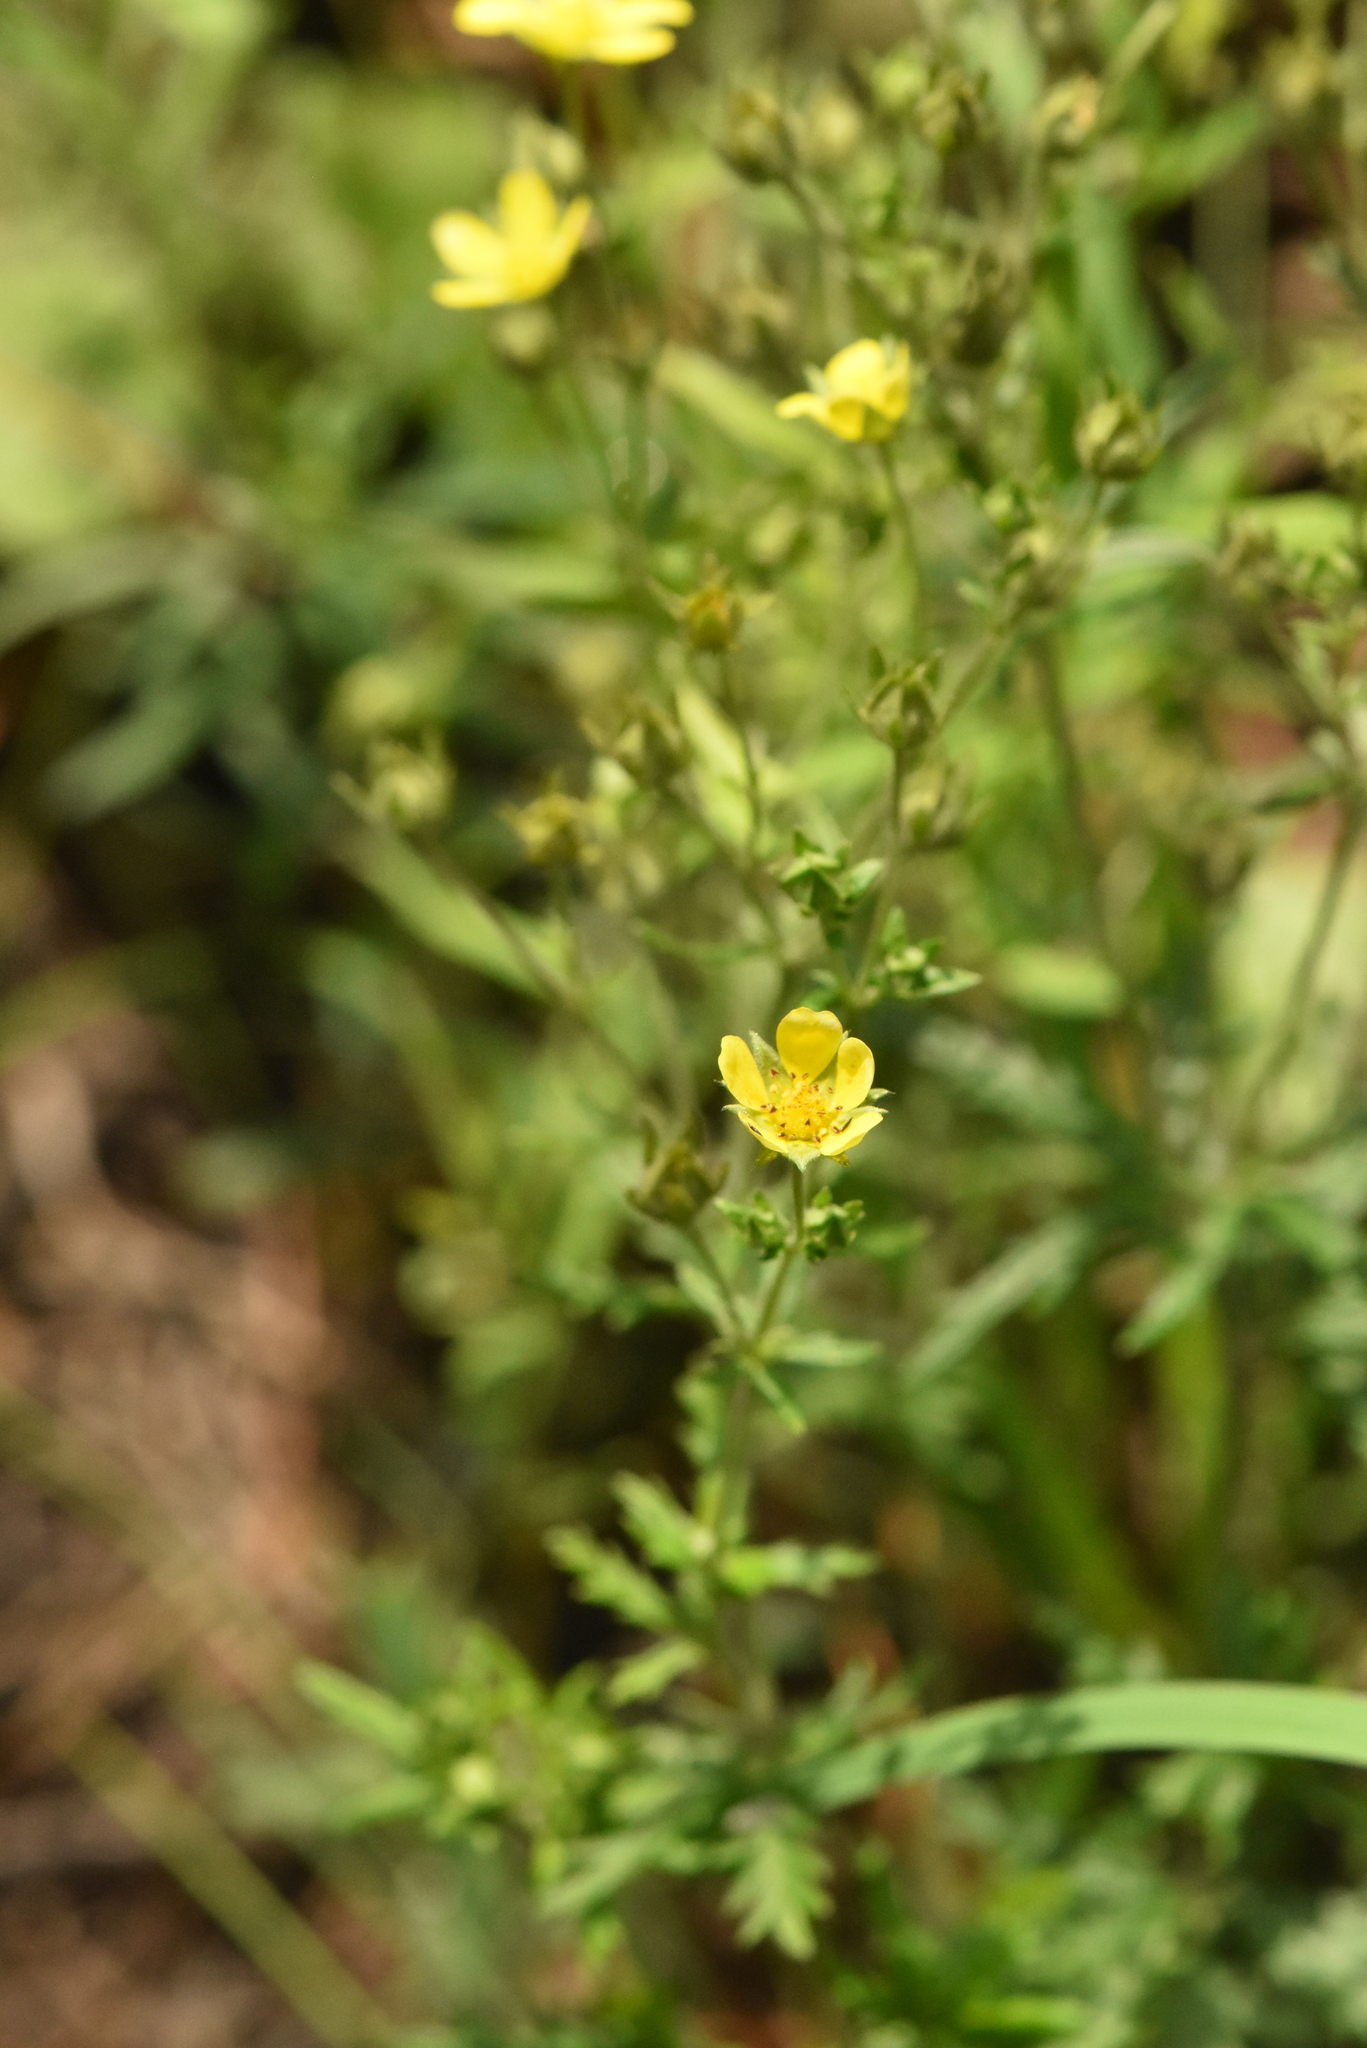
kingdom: Plantae
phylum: Tracheophyta
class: Magnoliopsida
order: Rosales
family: Rosaceae
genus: Potentilla
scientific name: Potentilla argentea
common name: Hoary cinquefoil
